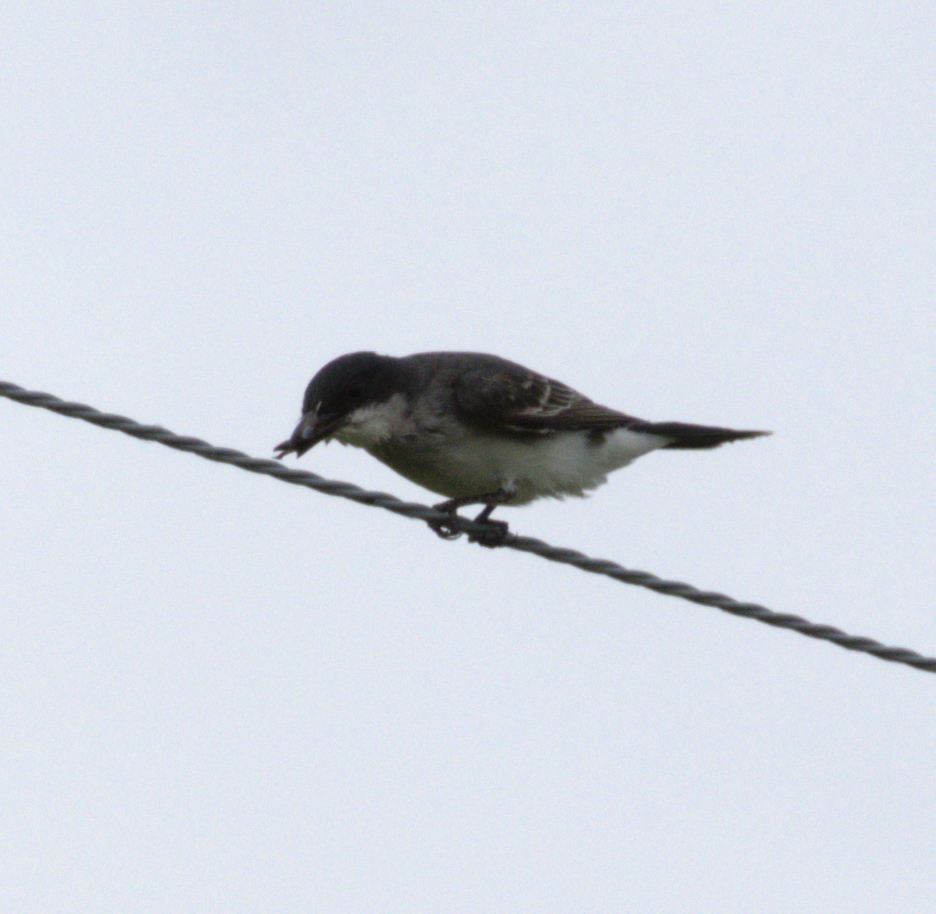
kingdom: Animalia
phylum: Chordata
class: Aves
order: Passeriformes
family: Tyrannidae
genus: Tyrannus
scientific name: Tyrannus tyrannus
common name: Eastern kingbird
